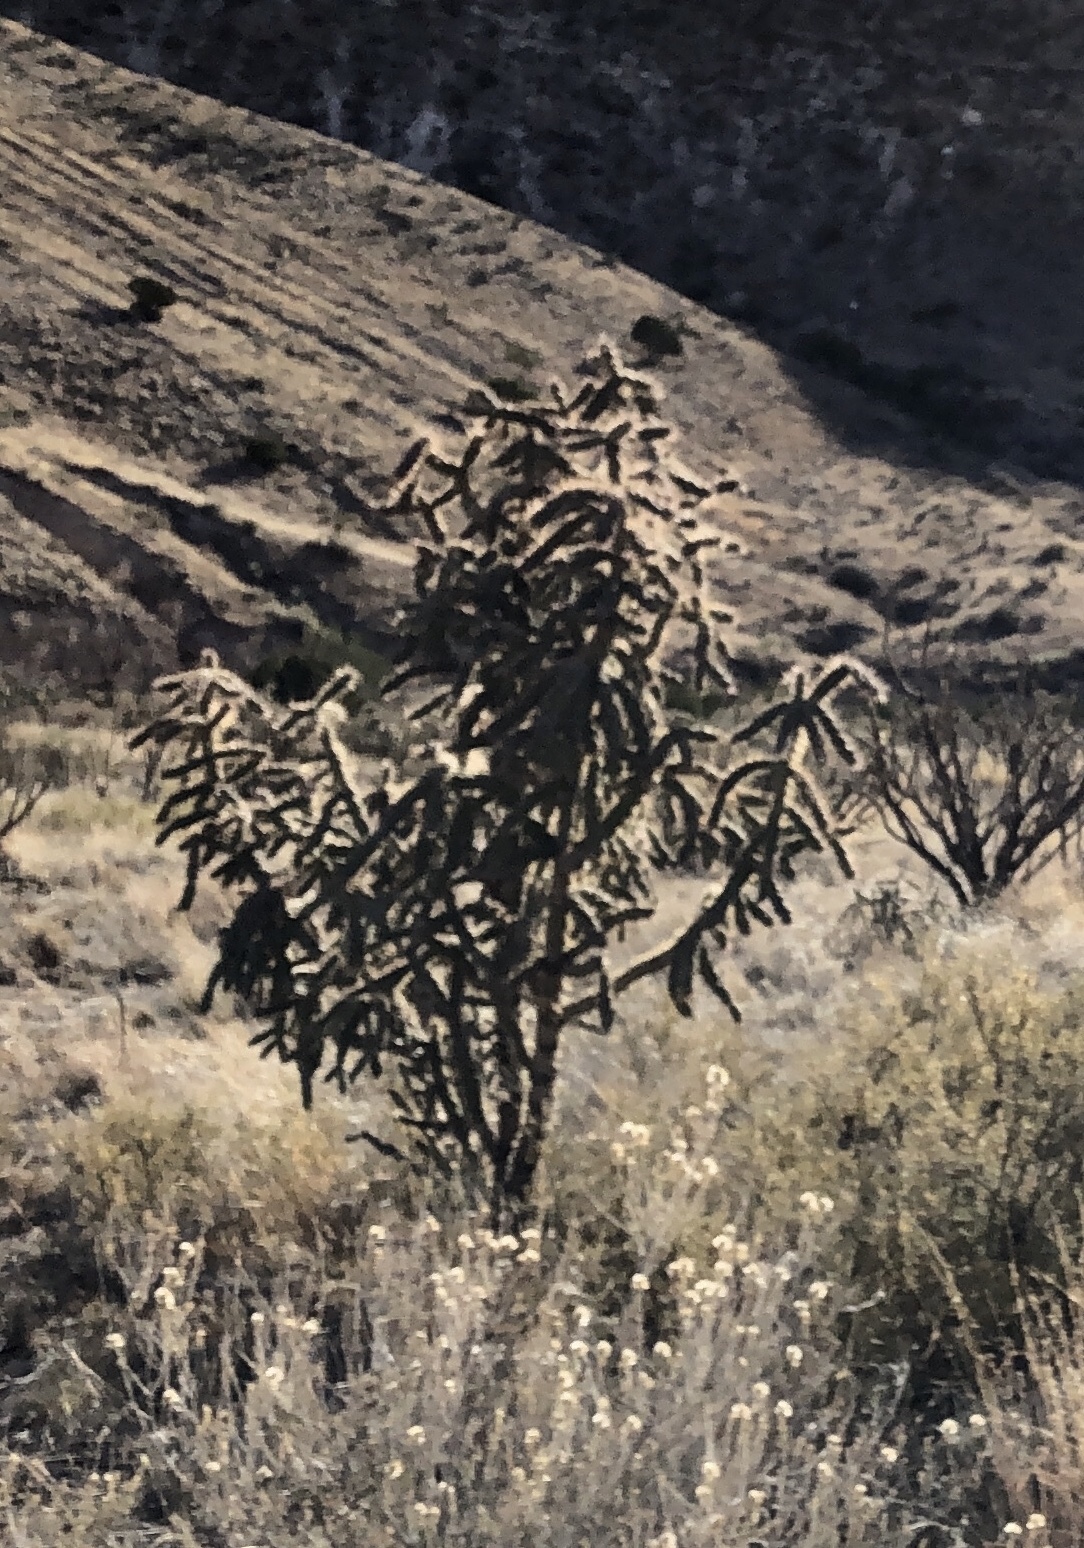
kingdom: Plantae
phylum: Tracheophyta
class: Magnoliopsida
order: Caryophyllales
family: Cactaceae
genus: Cylindropuntia
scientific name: Cylindropuntia imbricata
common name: Candelabrum cactus
